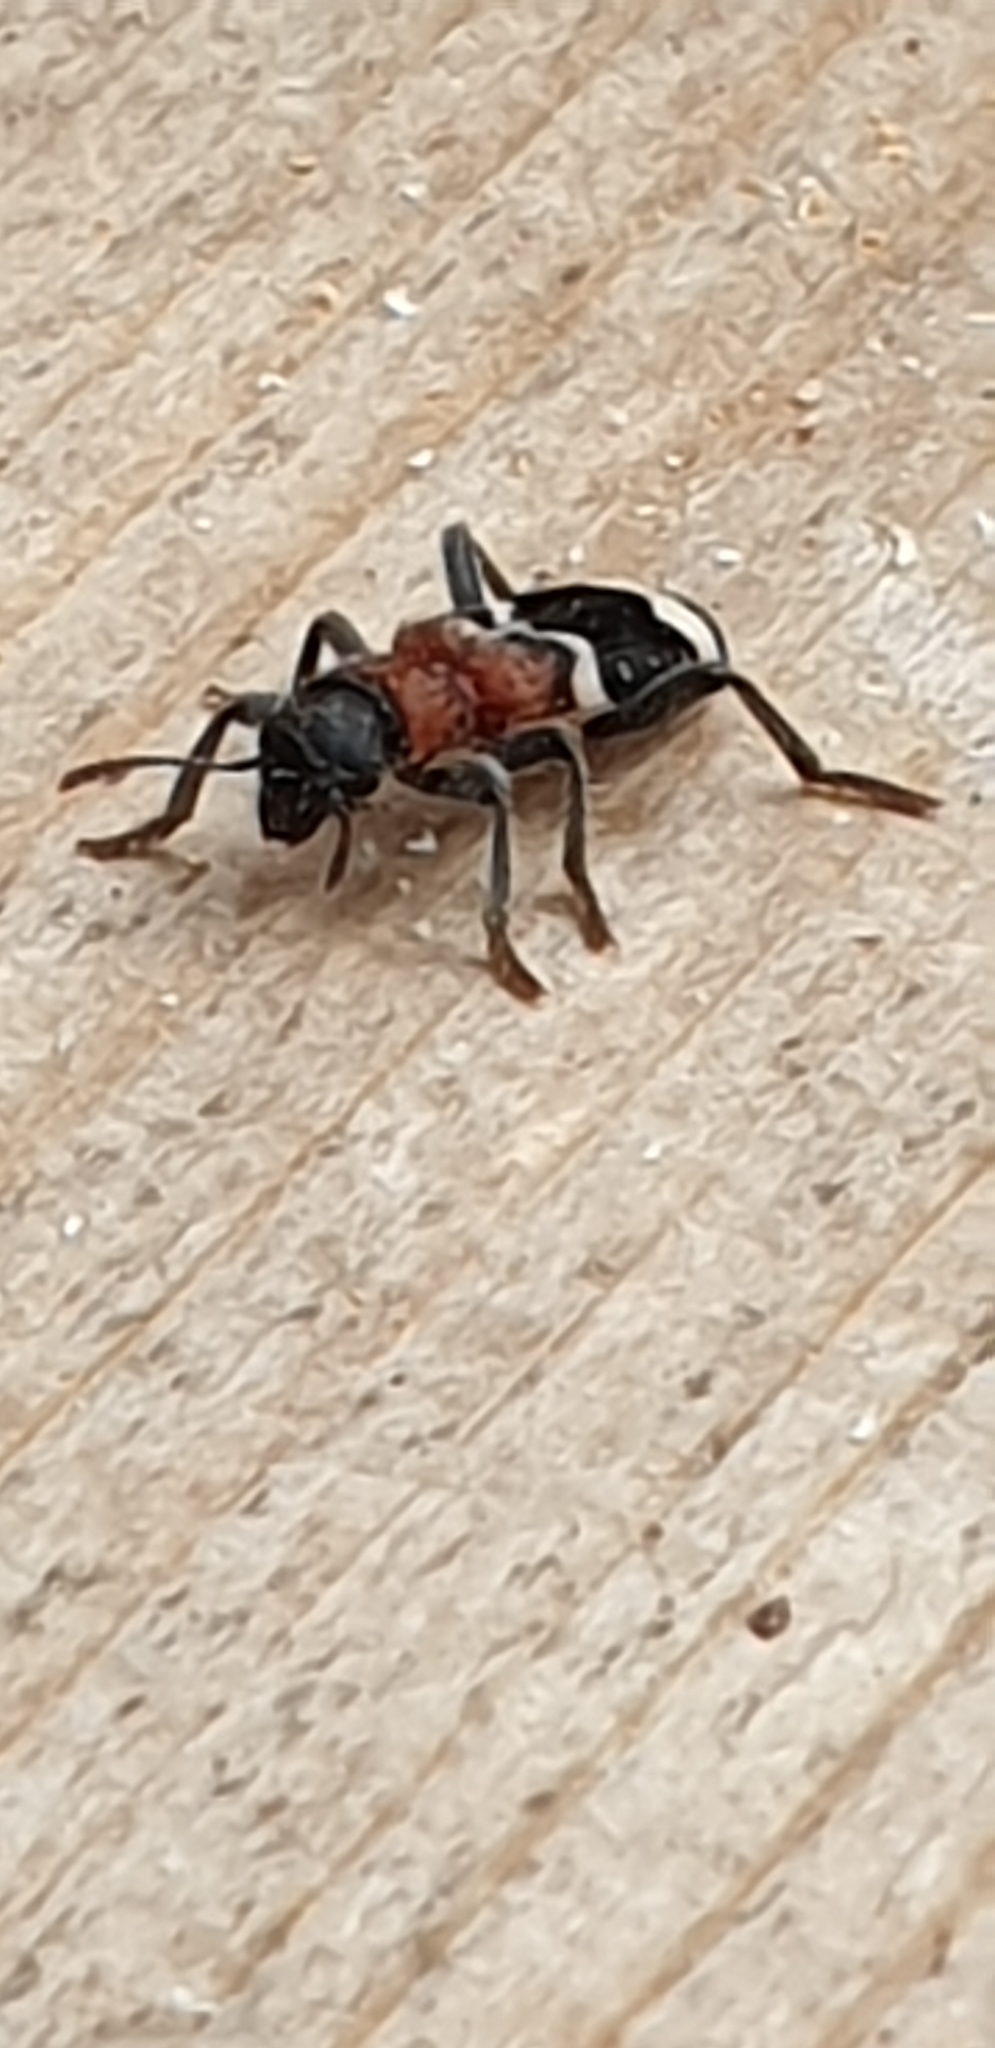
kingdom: Animalia
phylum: Arthropoda
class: Insecta
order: Coleoptera
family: Cleridae
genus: Thanasimus
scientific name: Thanasimus formicarius
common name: Ant beetle
